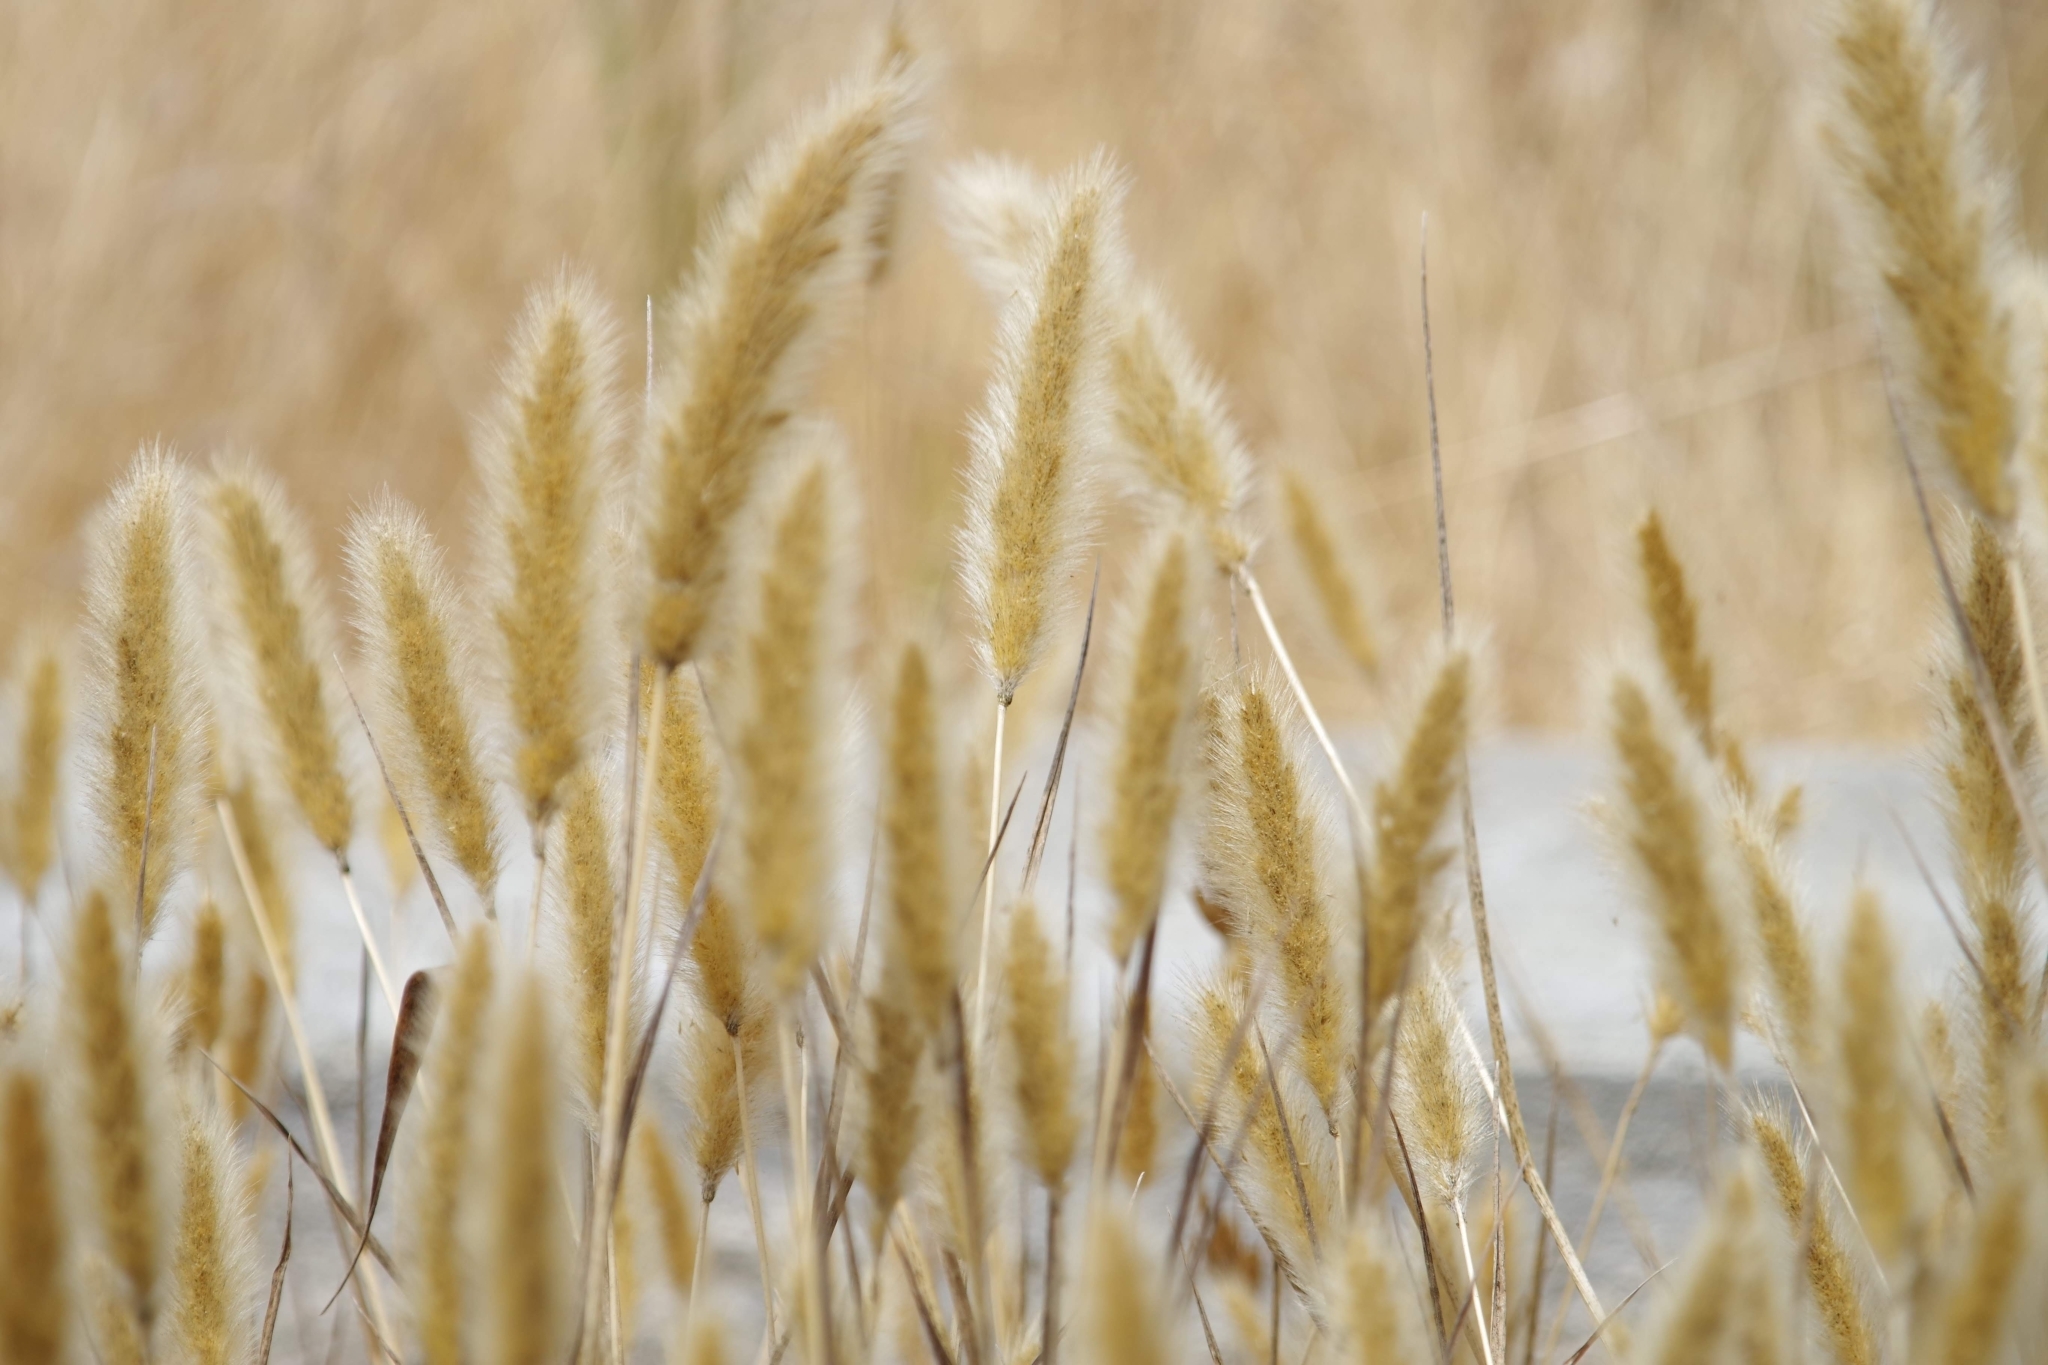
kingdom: Plantae
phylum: Tracheophyta
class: Liliopsida
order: Poales
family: Poaceae
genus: Polypogon
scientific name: Polypogon monspeliensis
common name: Annual rabbitsfoot grass
